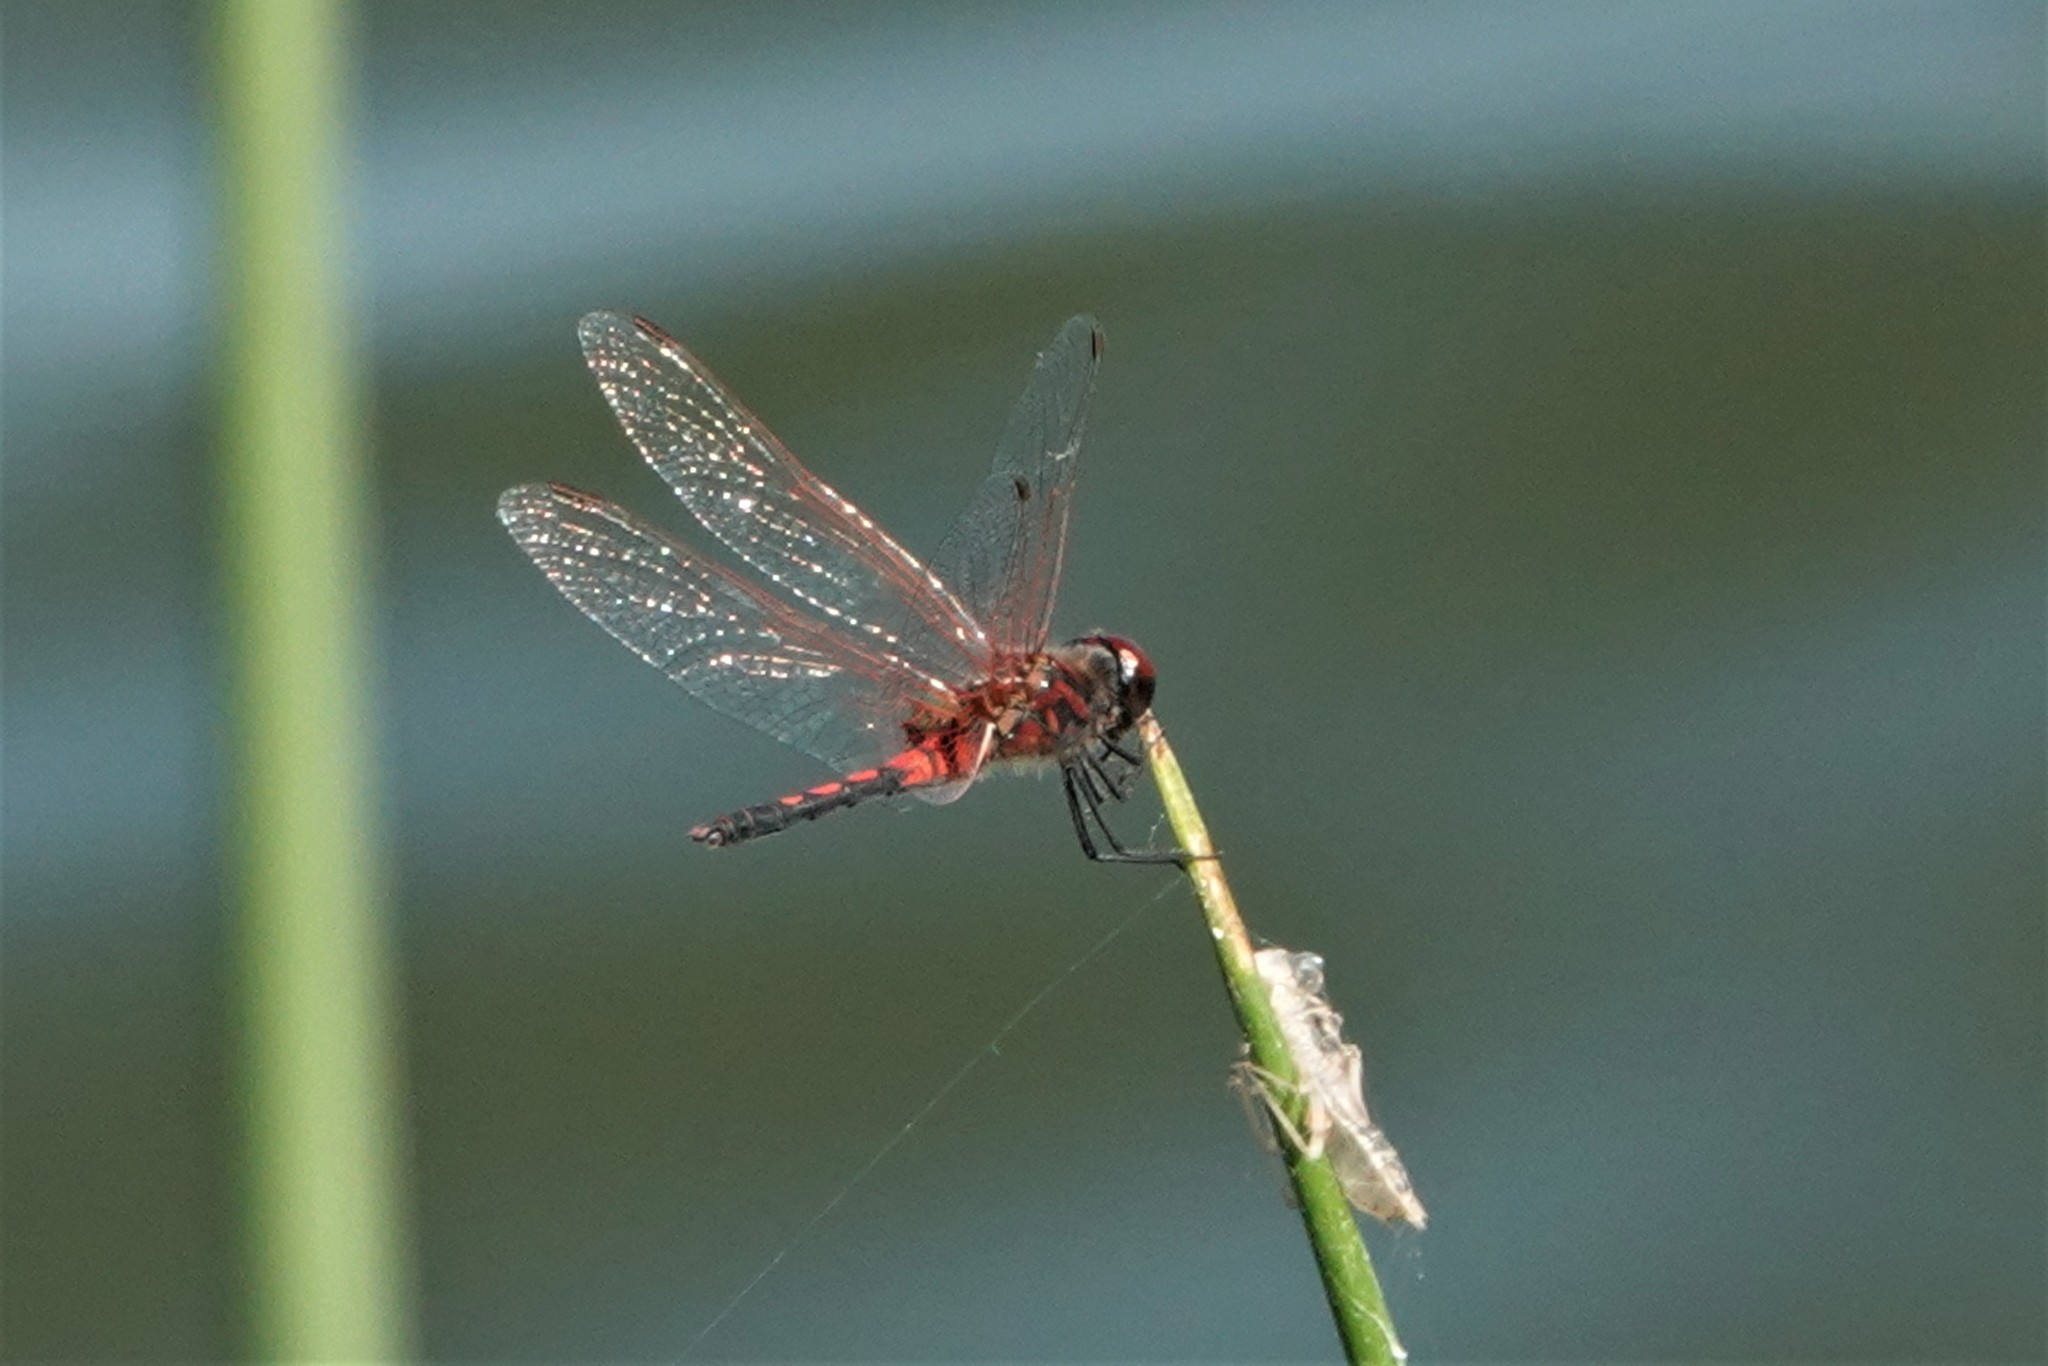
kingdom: Animalia
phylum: Arthropoda
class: Insecta
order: Odonata
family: Libellulidae
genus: Celithemis
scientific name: Celithemis bertha
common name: Red-veined pennant
